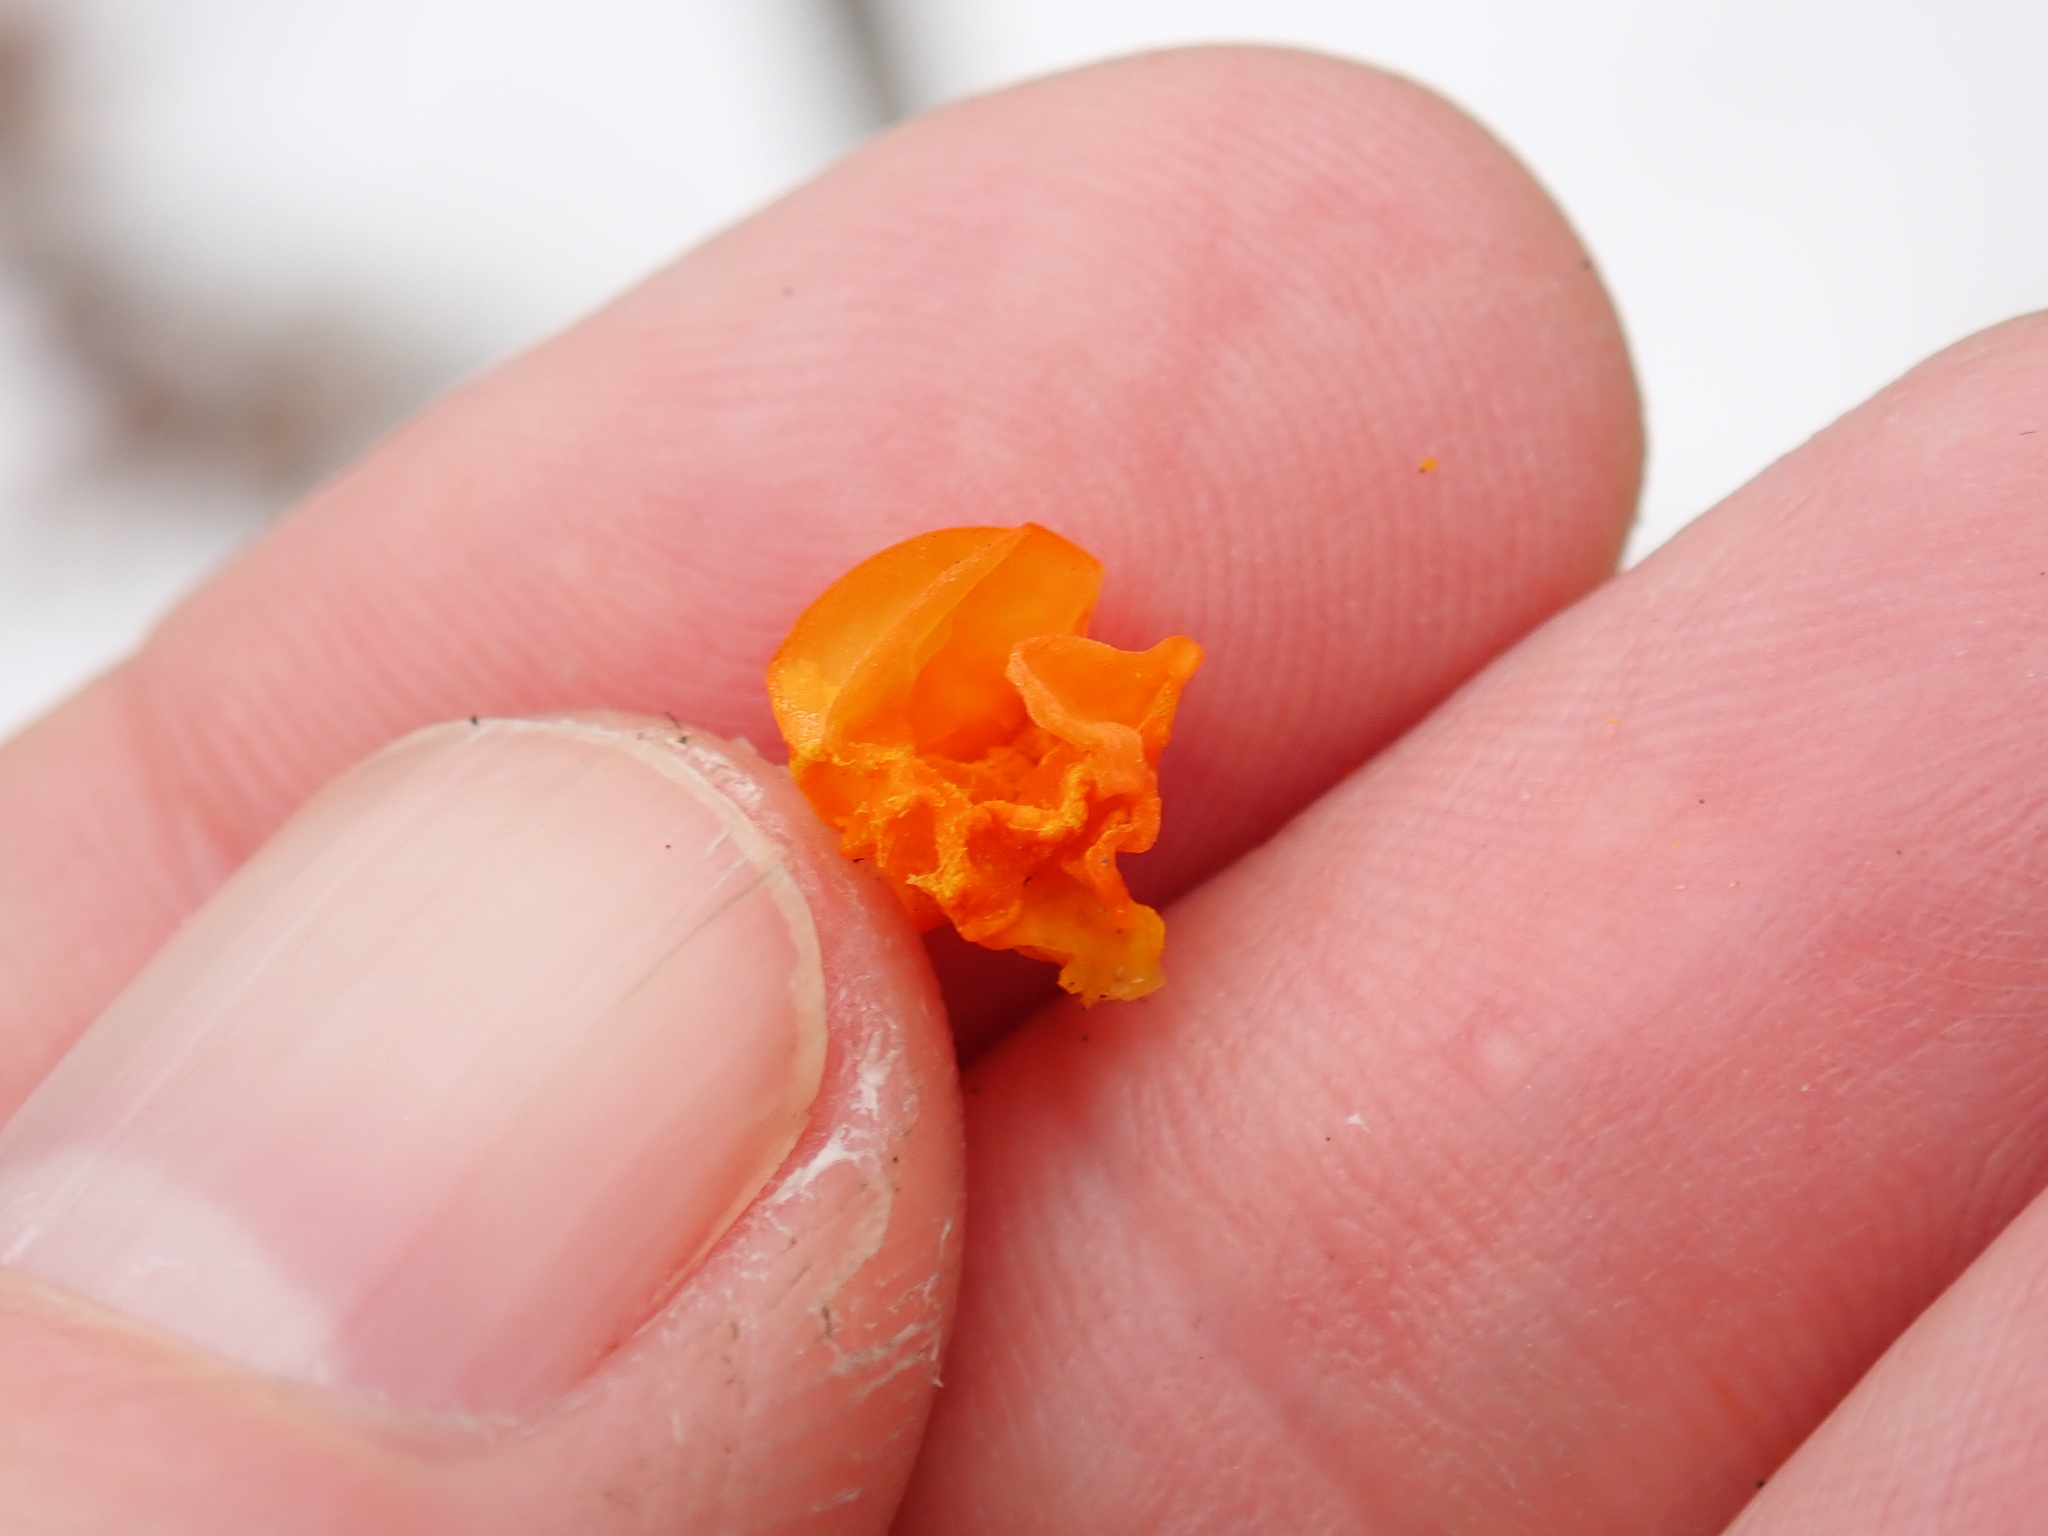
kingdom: Fungi
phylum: Basidiomycota
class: Tremellomycetes
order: Tremellales
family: Tremellaceae
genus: Tremella
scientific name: Tremella mesenterica
